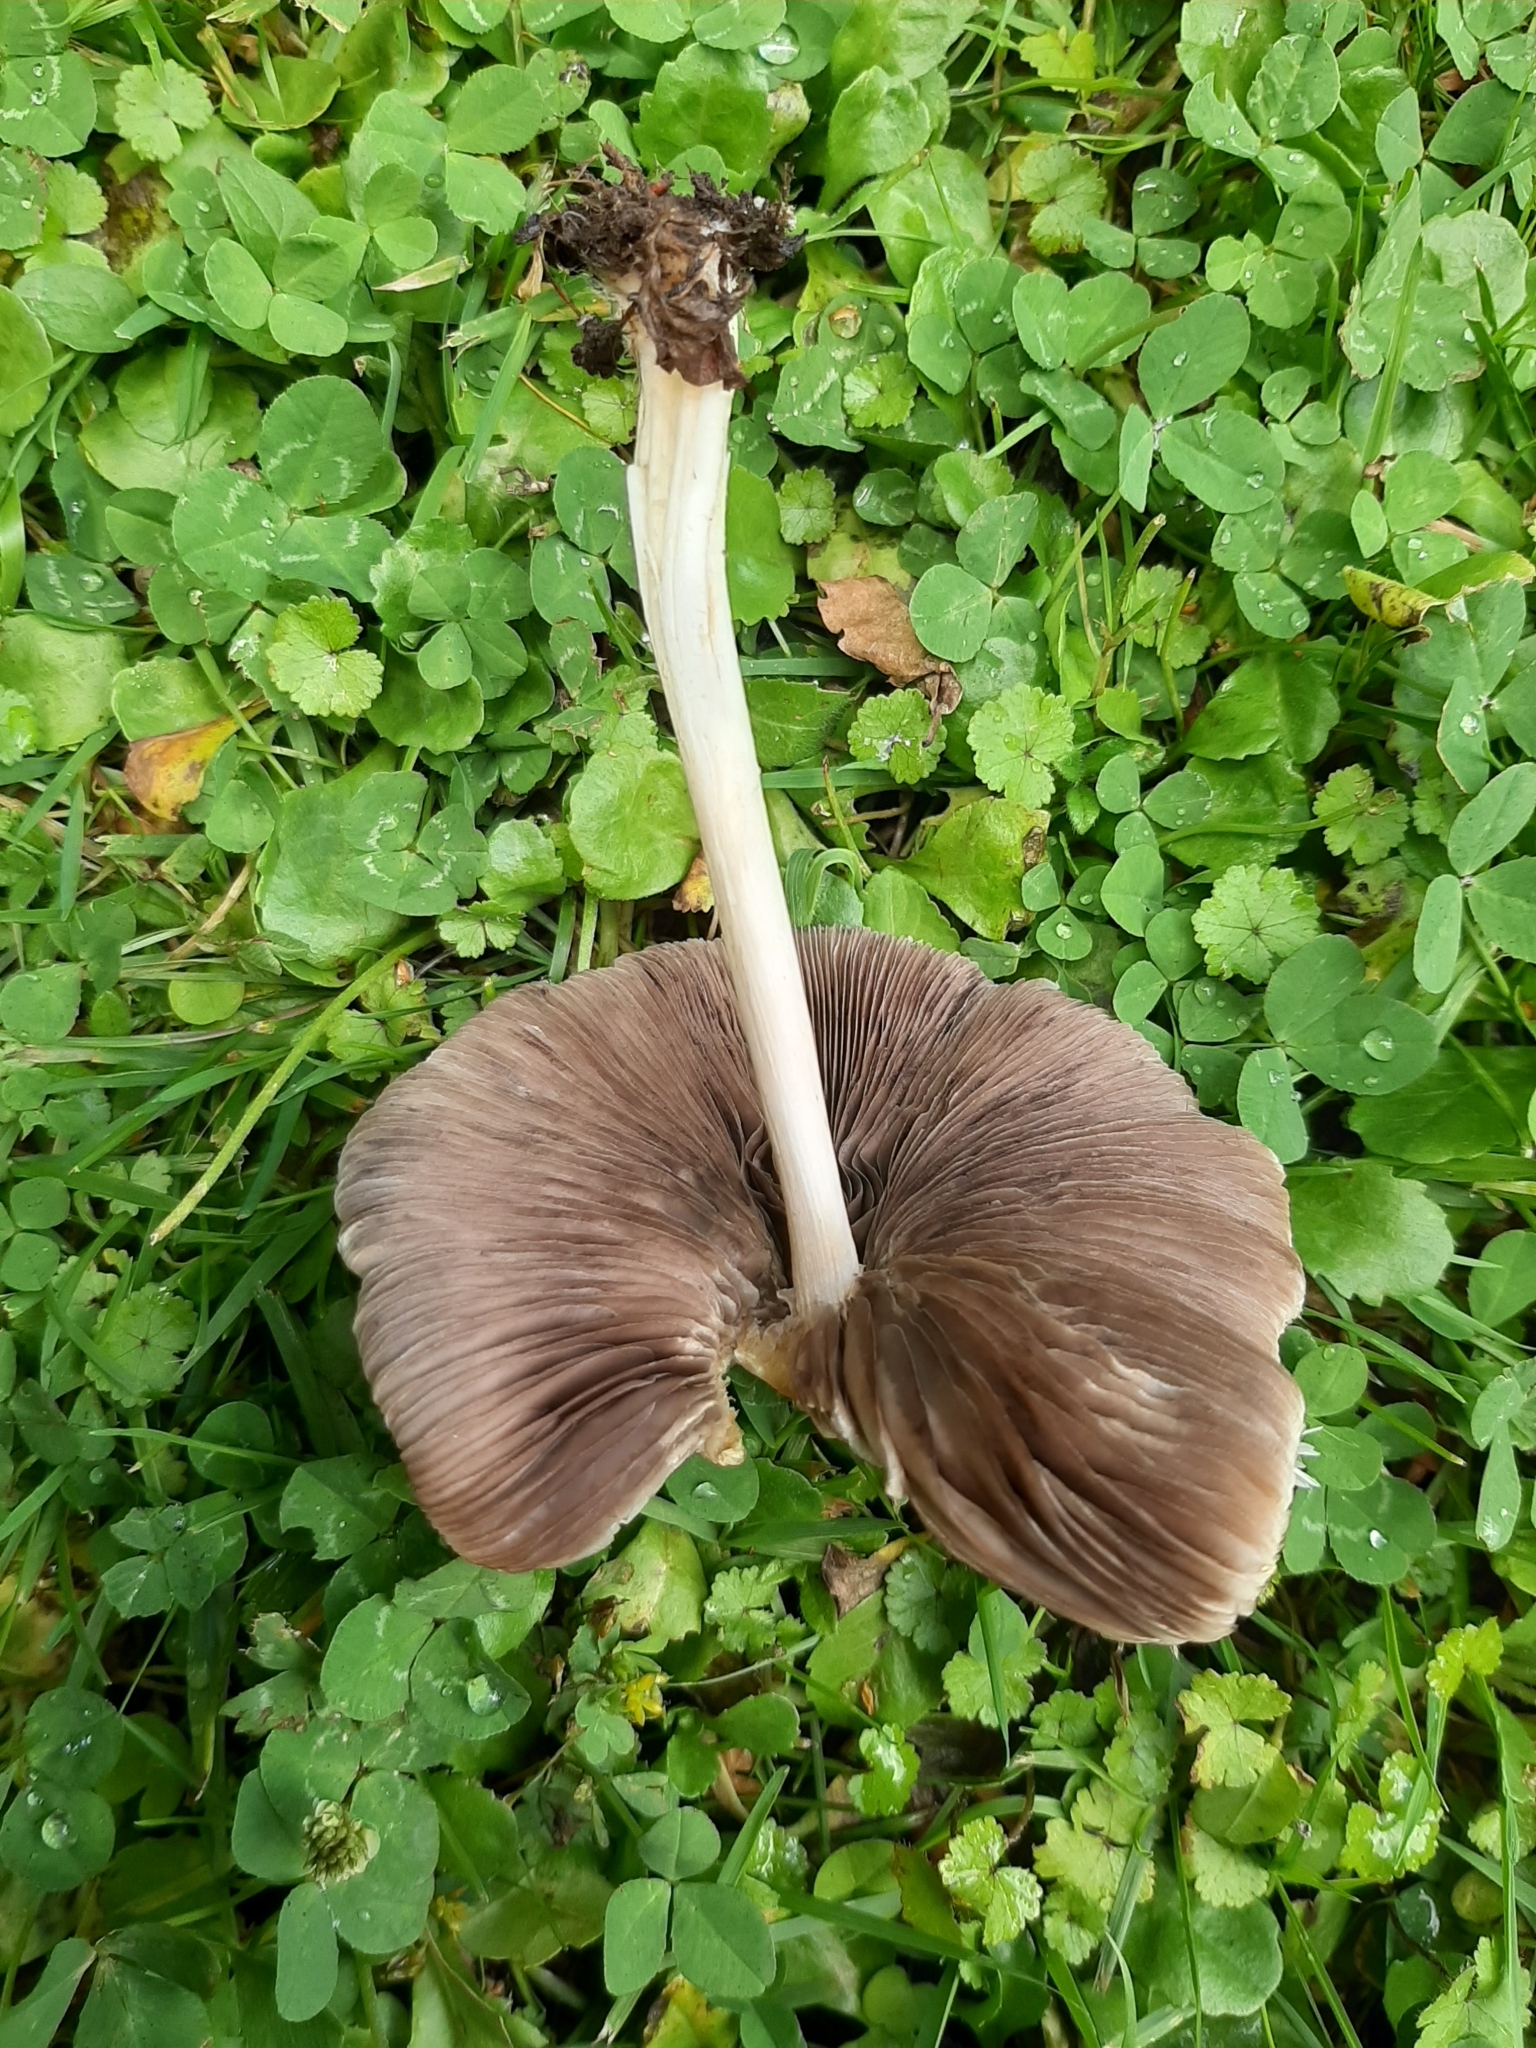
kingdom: Fungi
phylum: Basidiomycota
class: Agaricomycetes
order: Agaricales
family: Psathyrellaceae
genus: Candolleomyces
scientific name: Candolleomyces candolleanus
